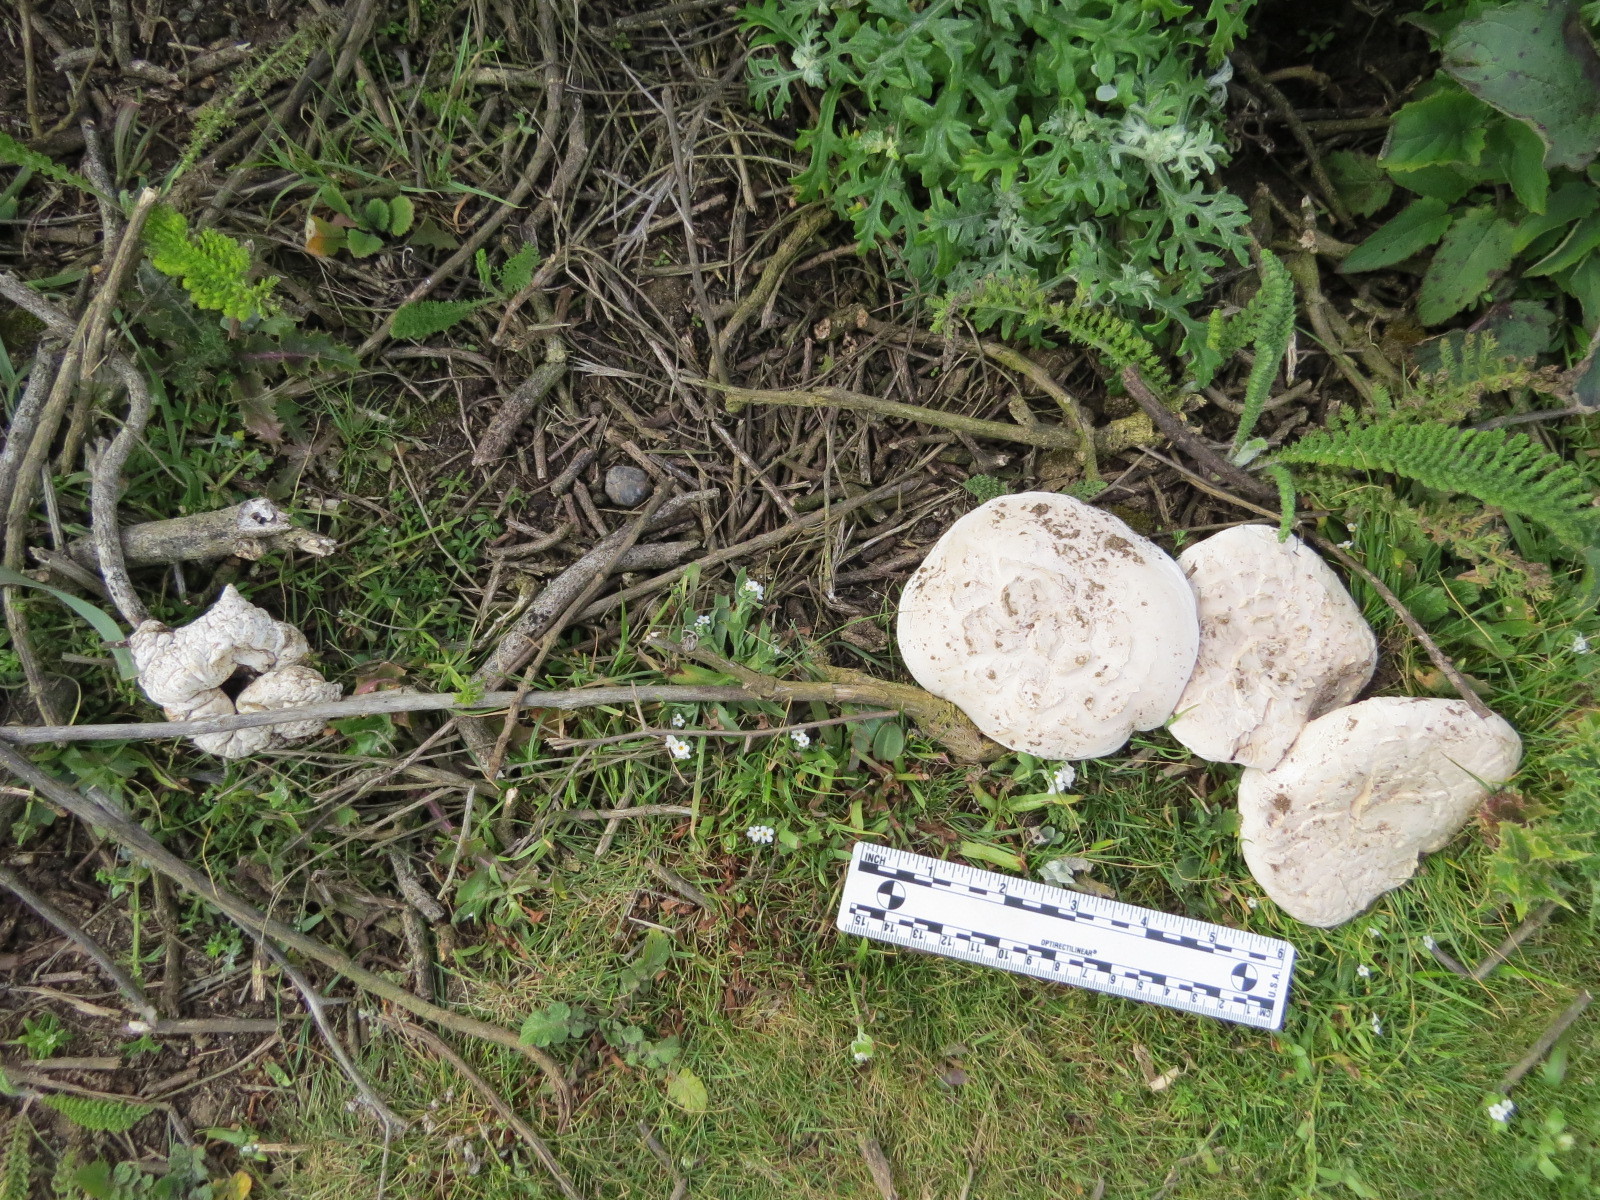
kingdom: Fungi
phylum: Basidiomycota
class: Agaricomycetes
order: Agaricales
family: Agaricaceae
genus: Agaricus
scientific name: Agaricus bernardii
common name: Salty mushroom
